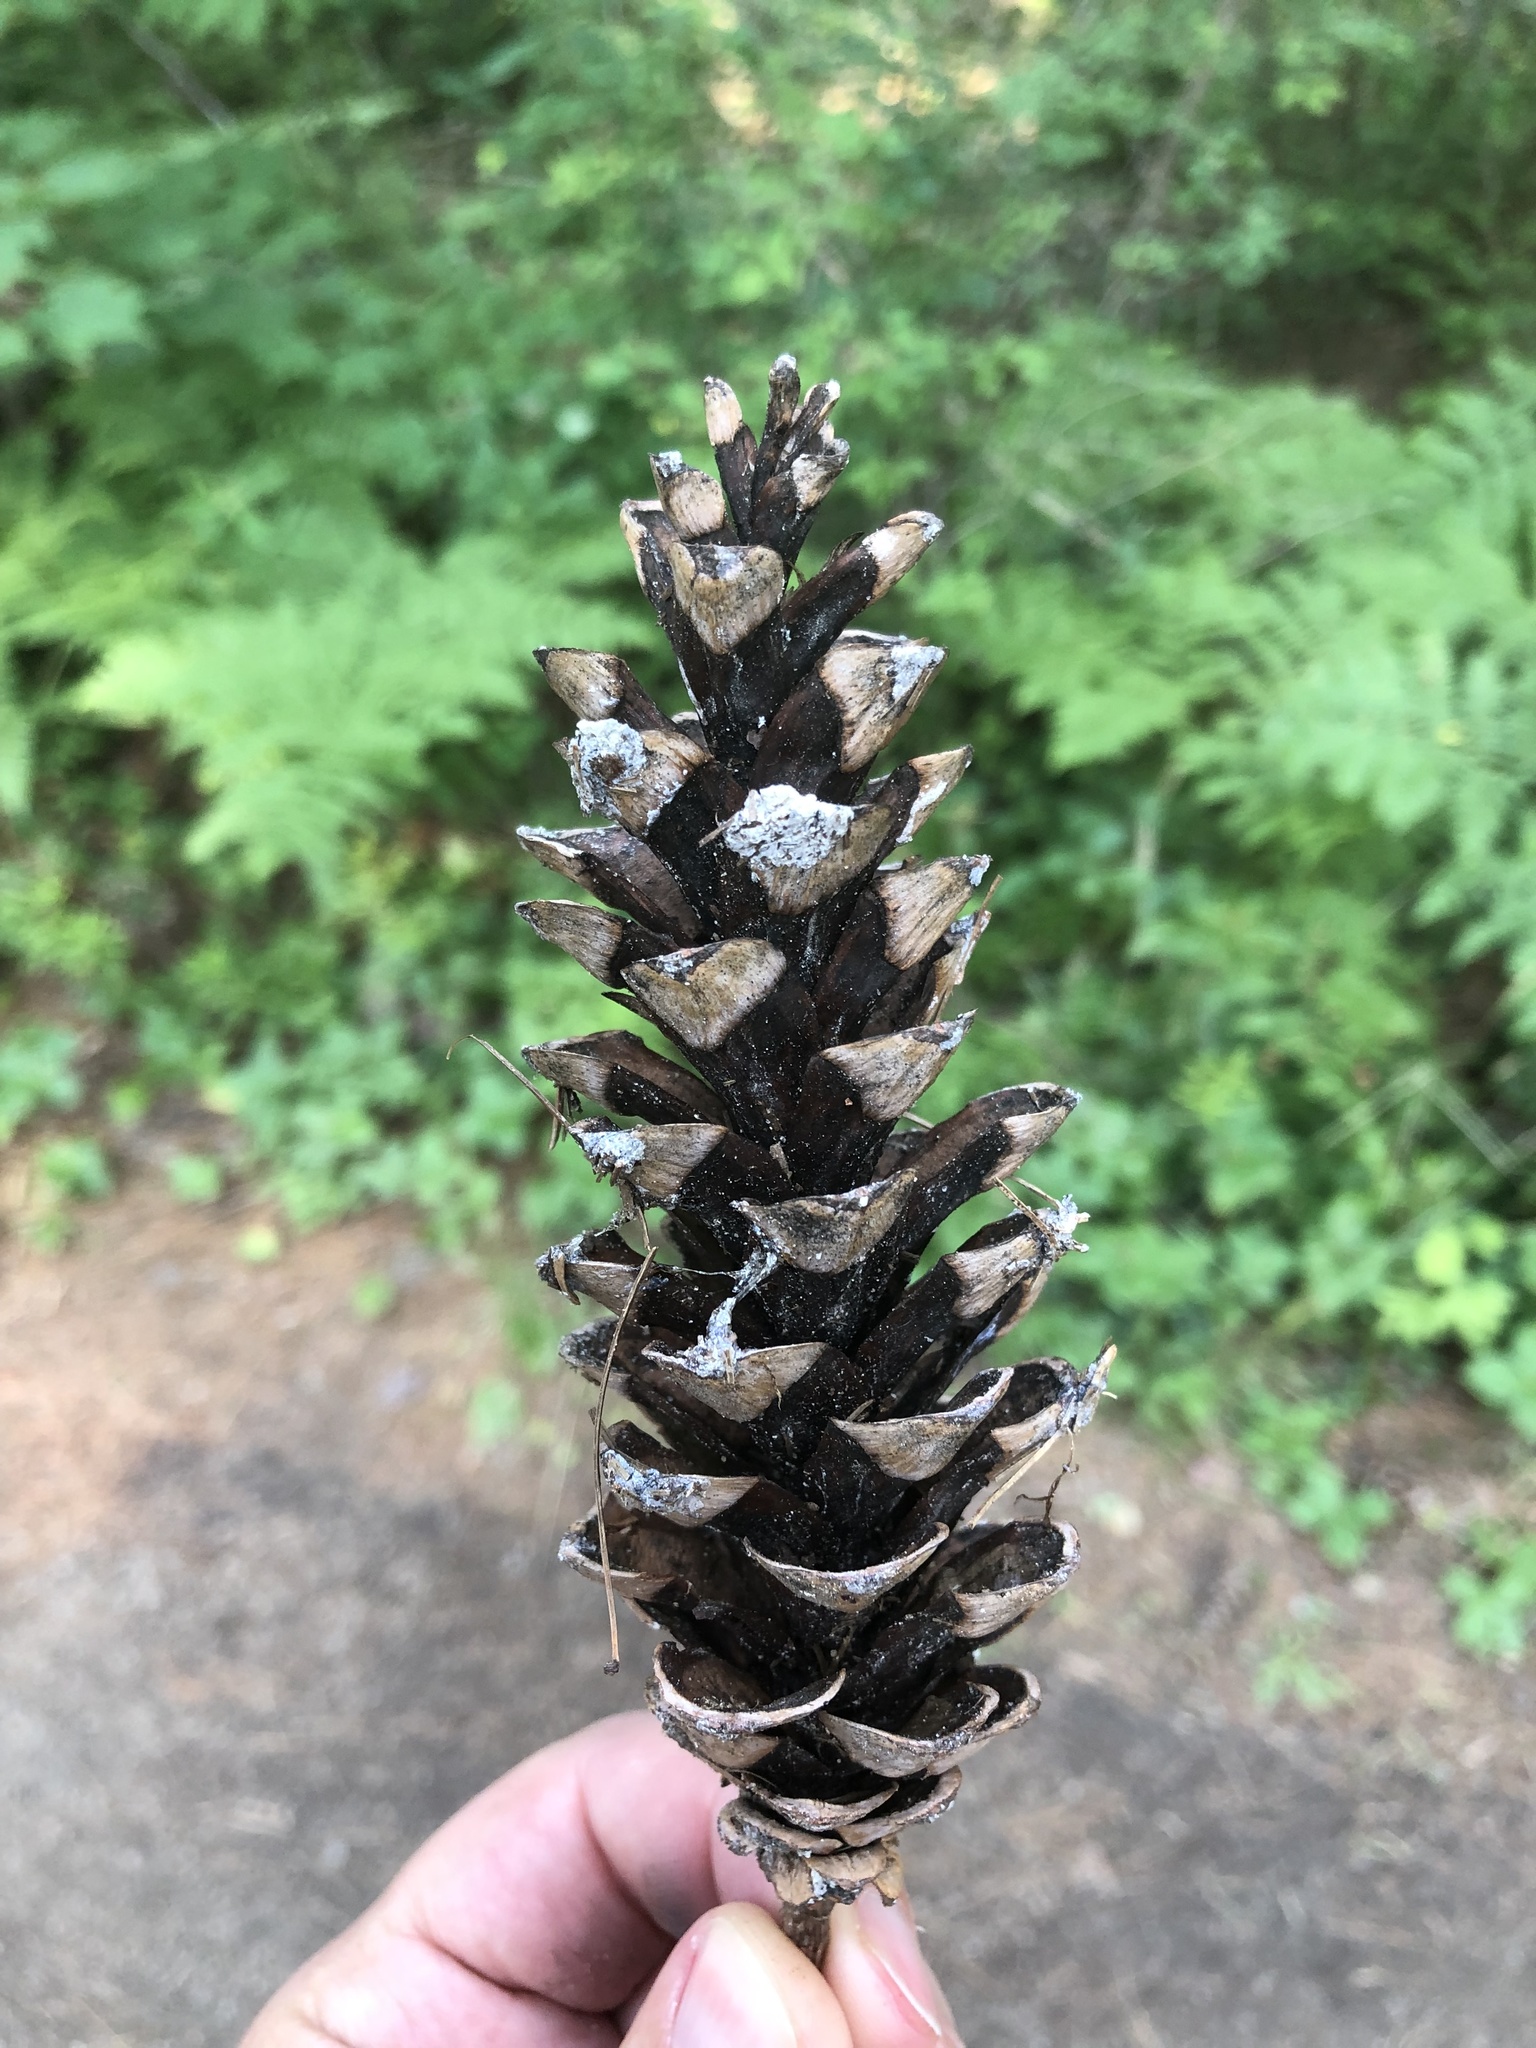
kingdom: Plantae
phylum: Tracheophyta
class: Pinopsida
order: Pinales
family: Pinaceae
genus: Pinus
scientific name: Pinus strobus
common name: Weymouth pine
